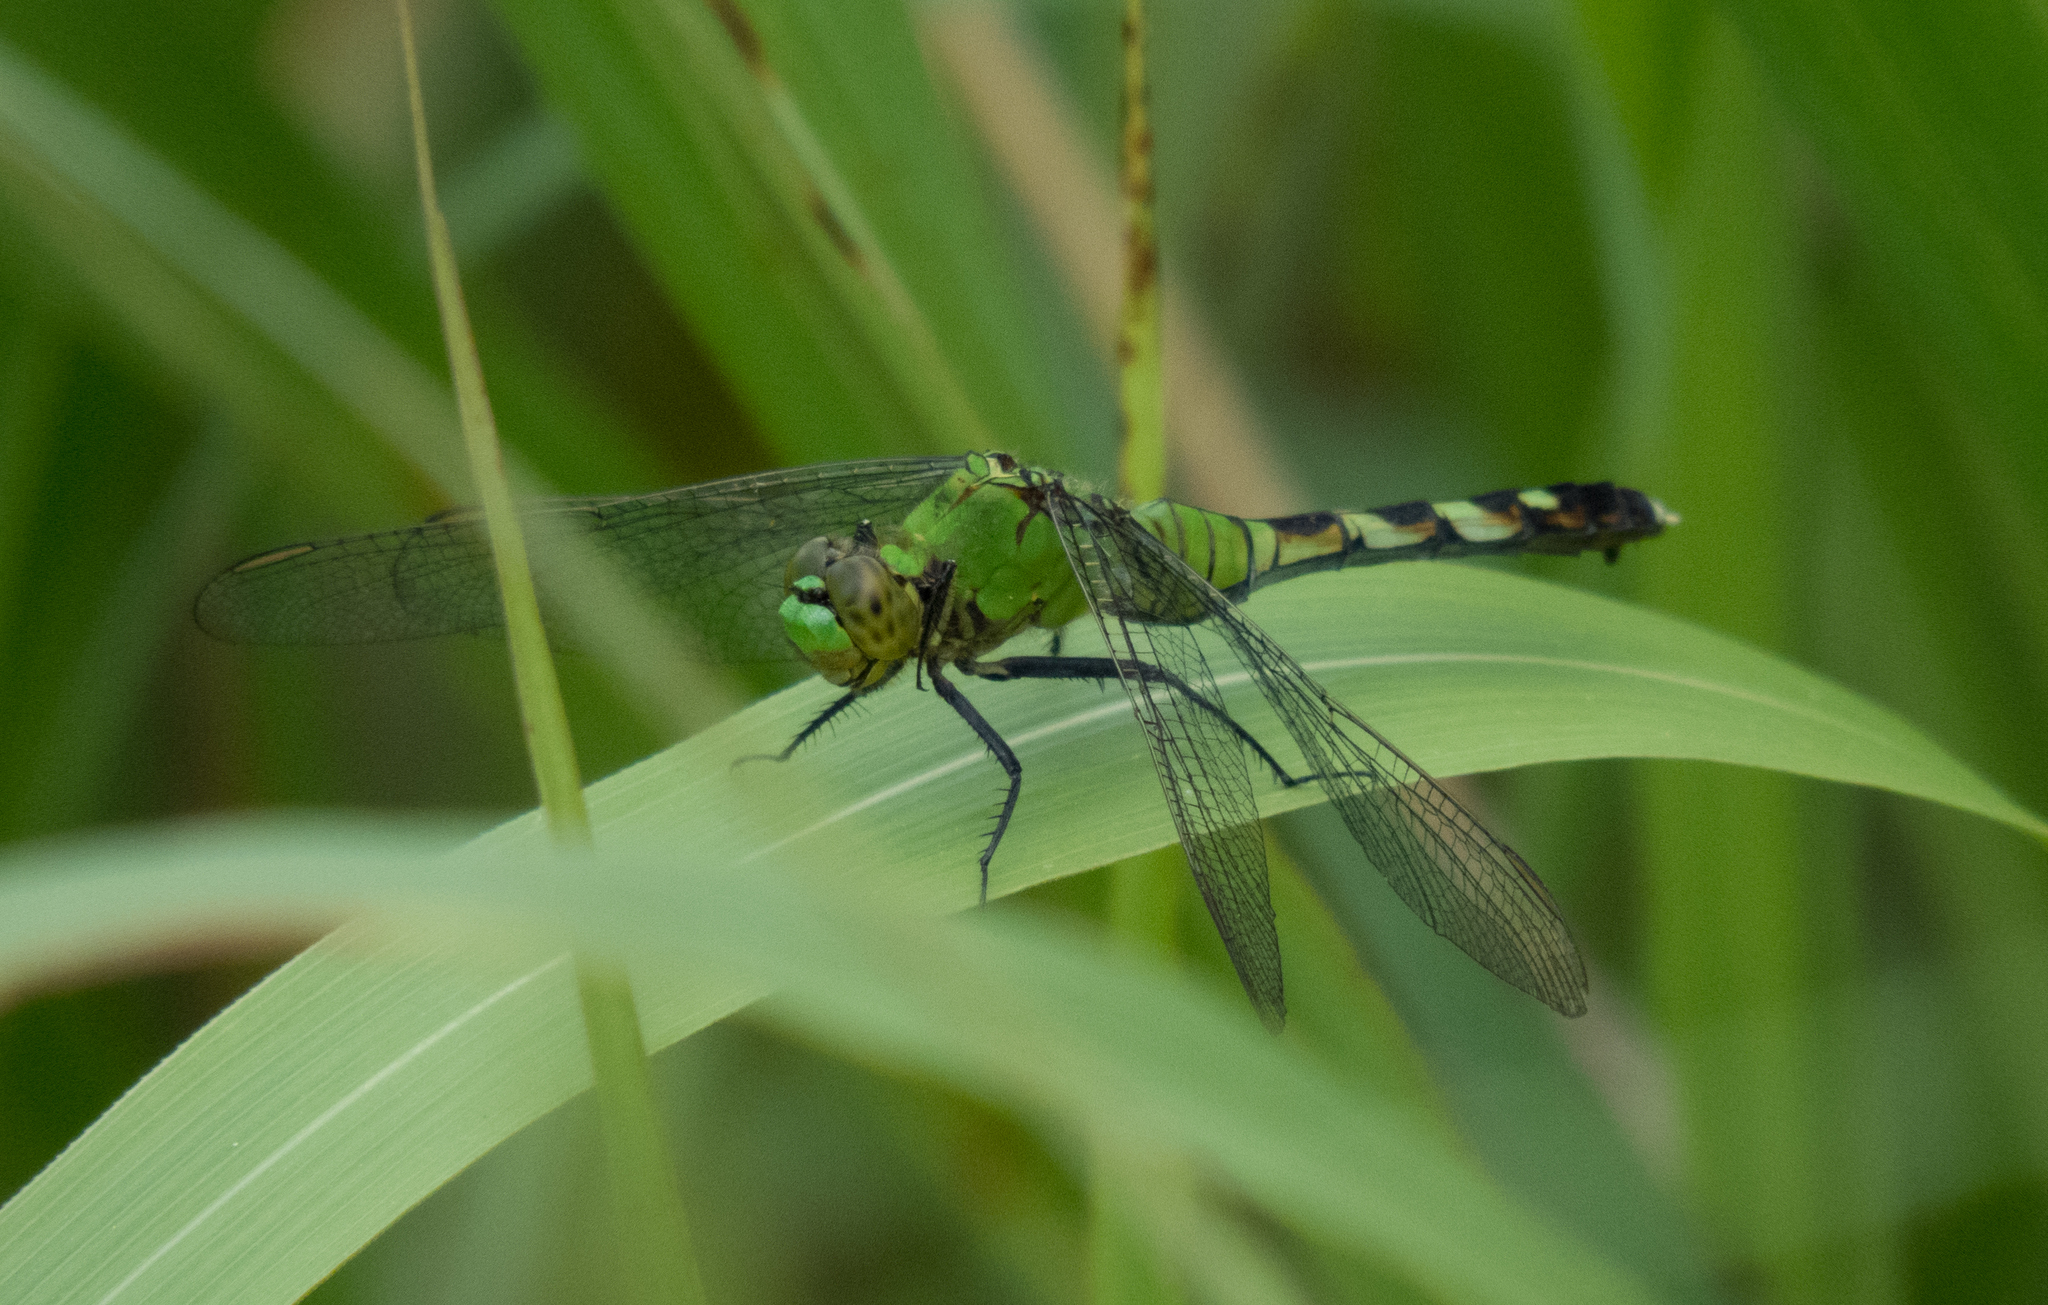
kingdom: Animalia
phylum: Arthropoda
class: Insecta
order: Odonata
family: Libellulidae
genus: Erythemis
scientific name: Erythemis simplicicollis
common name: Eastern pondhawk
